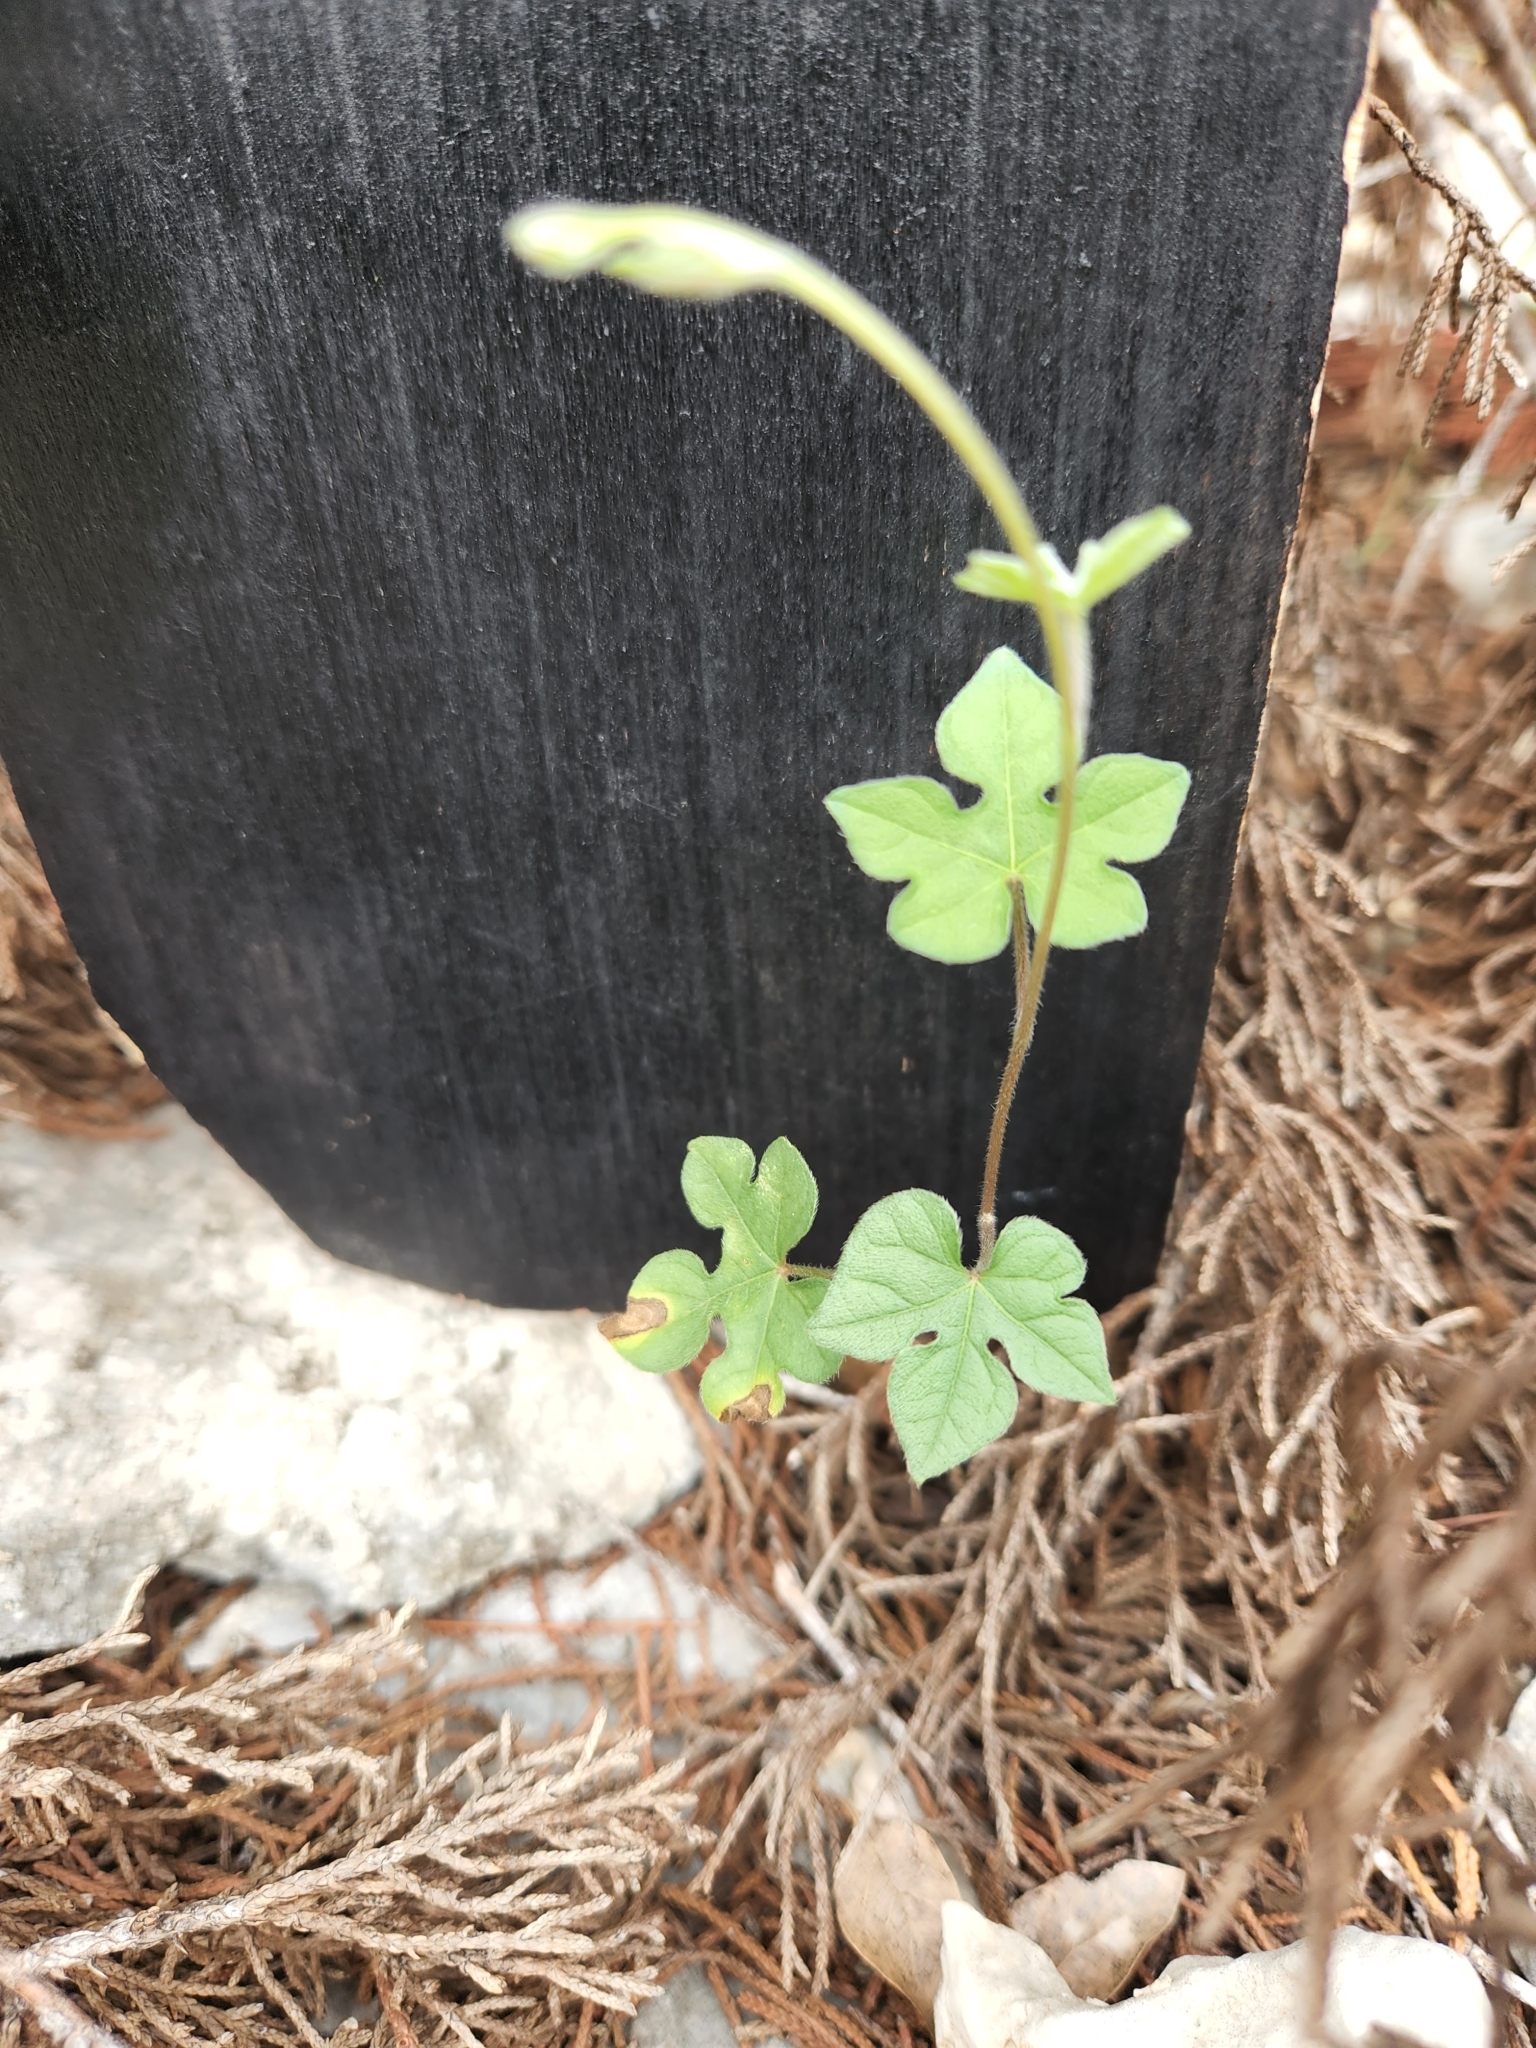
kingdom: Plantae
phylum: Tracheophyta
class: Magnoliopsida
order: Solanales
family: Convolvulaceae
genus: Ipomoea
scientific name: Ipomoea lindheimeri
